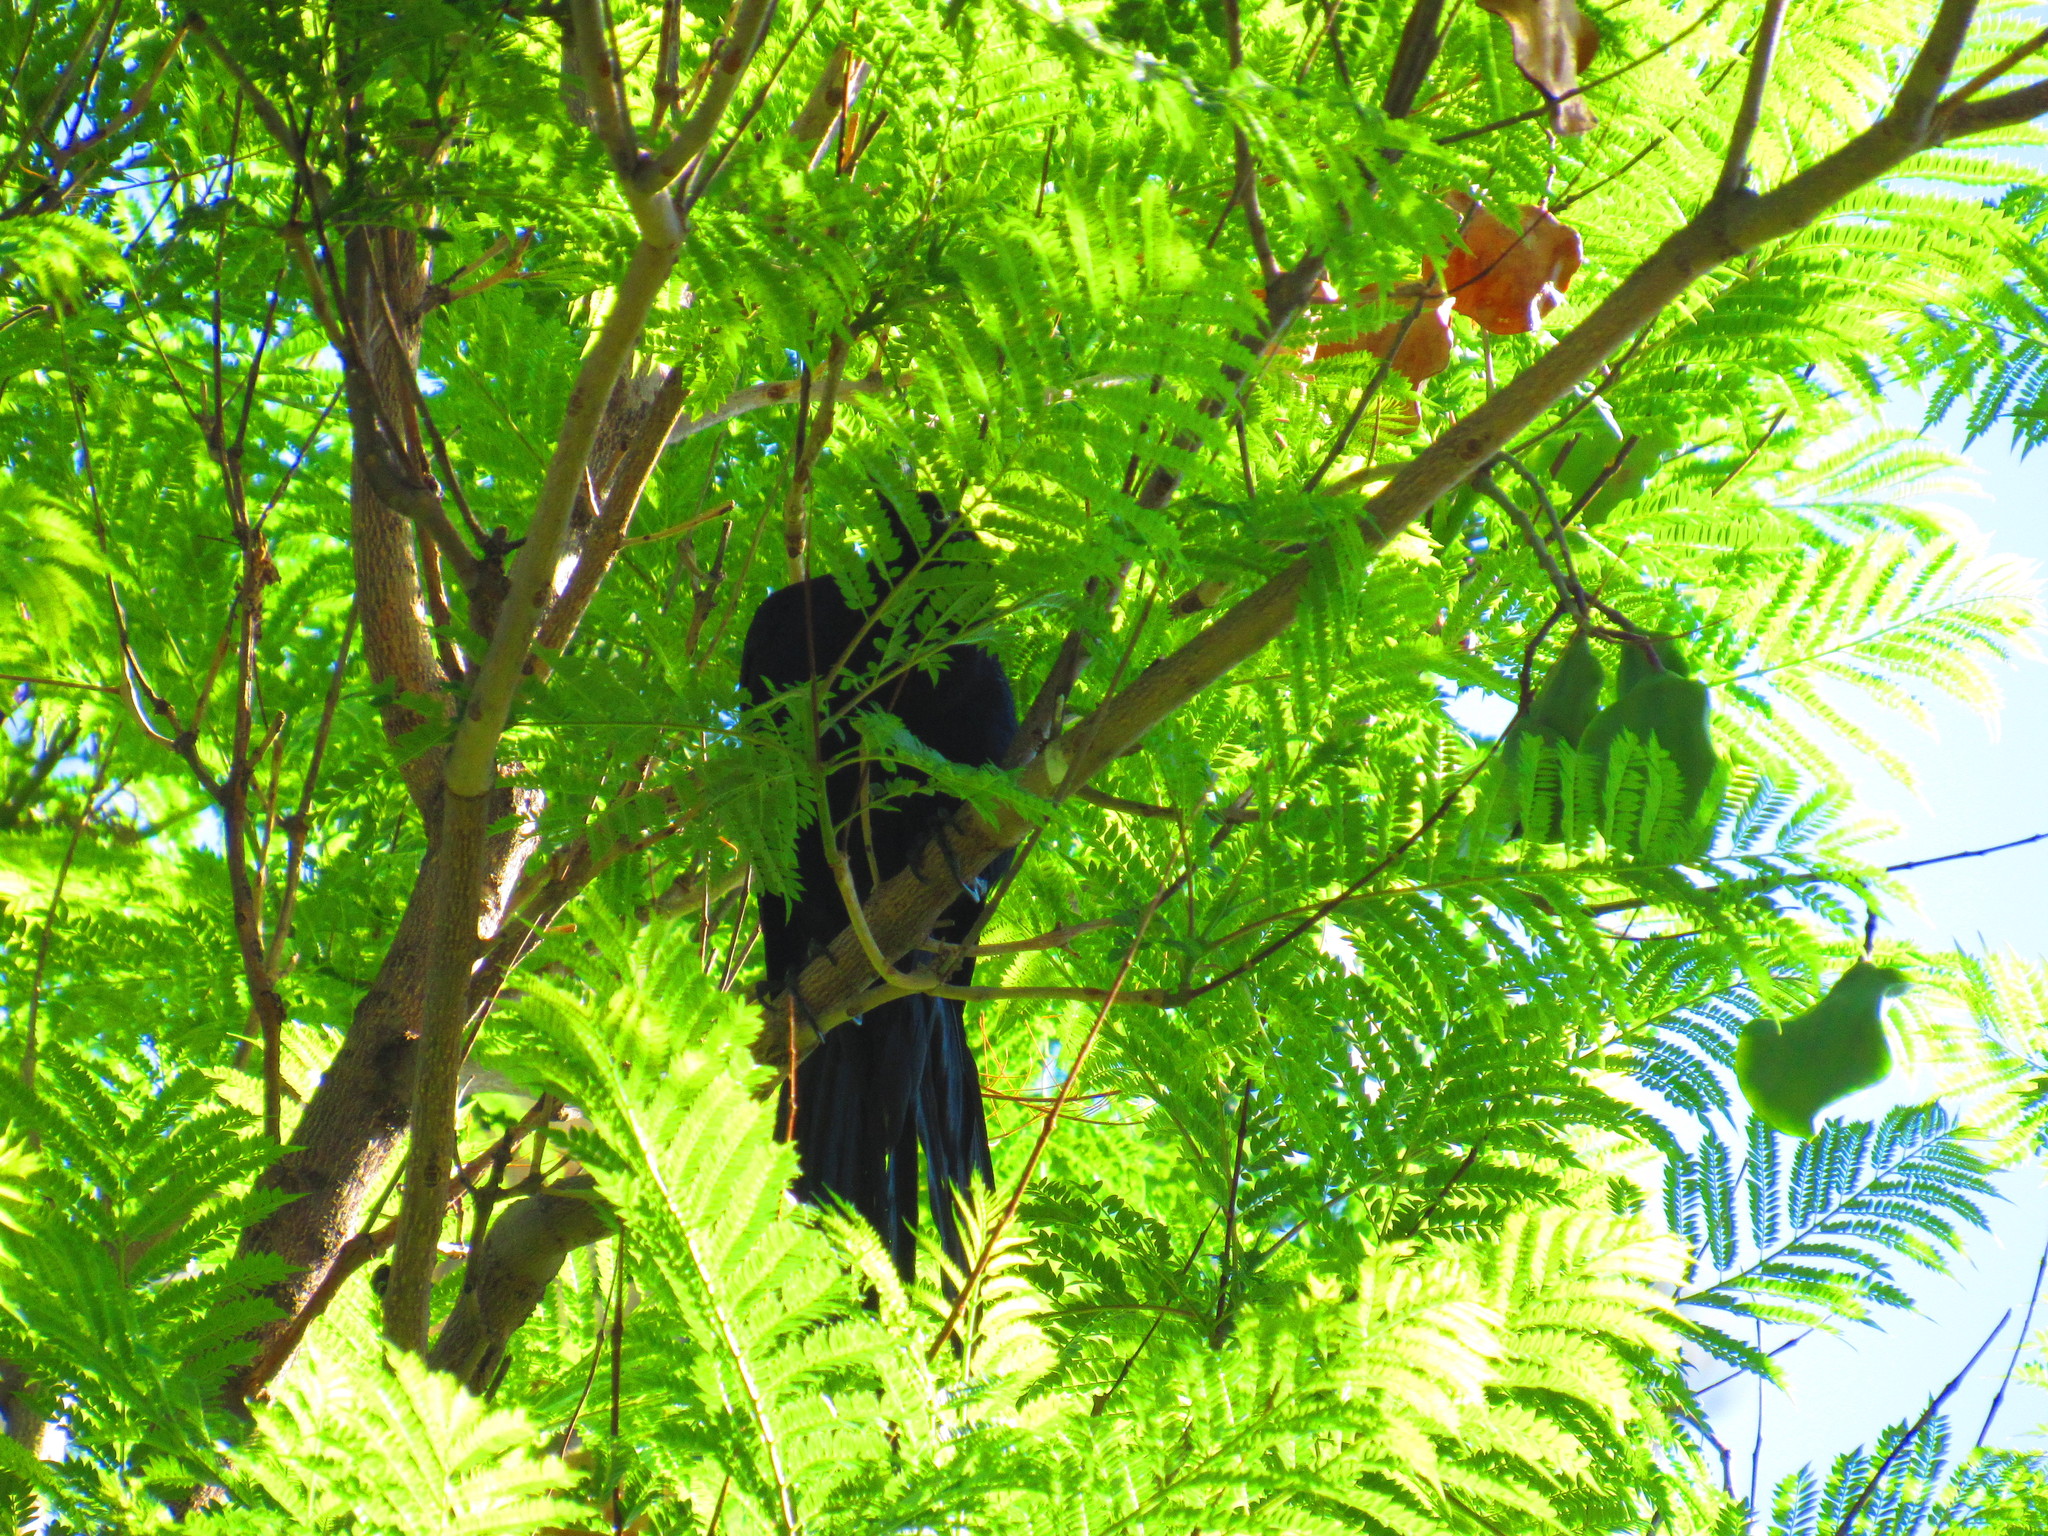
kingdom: Animalia
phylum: Chordata
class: Aves
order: Passeriformes
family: Icteridae
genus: Quiscalus
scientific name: Quiscalus mexicanus
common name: Great-tailed grackle
